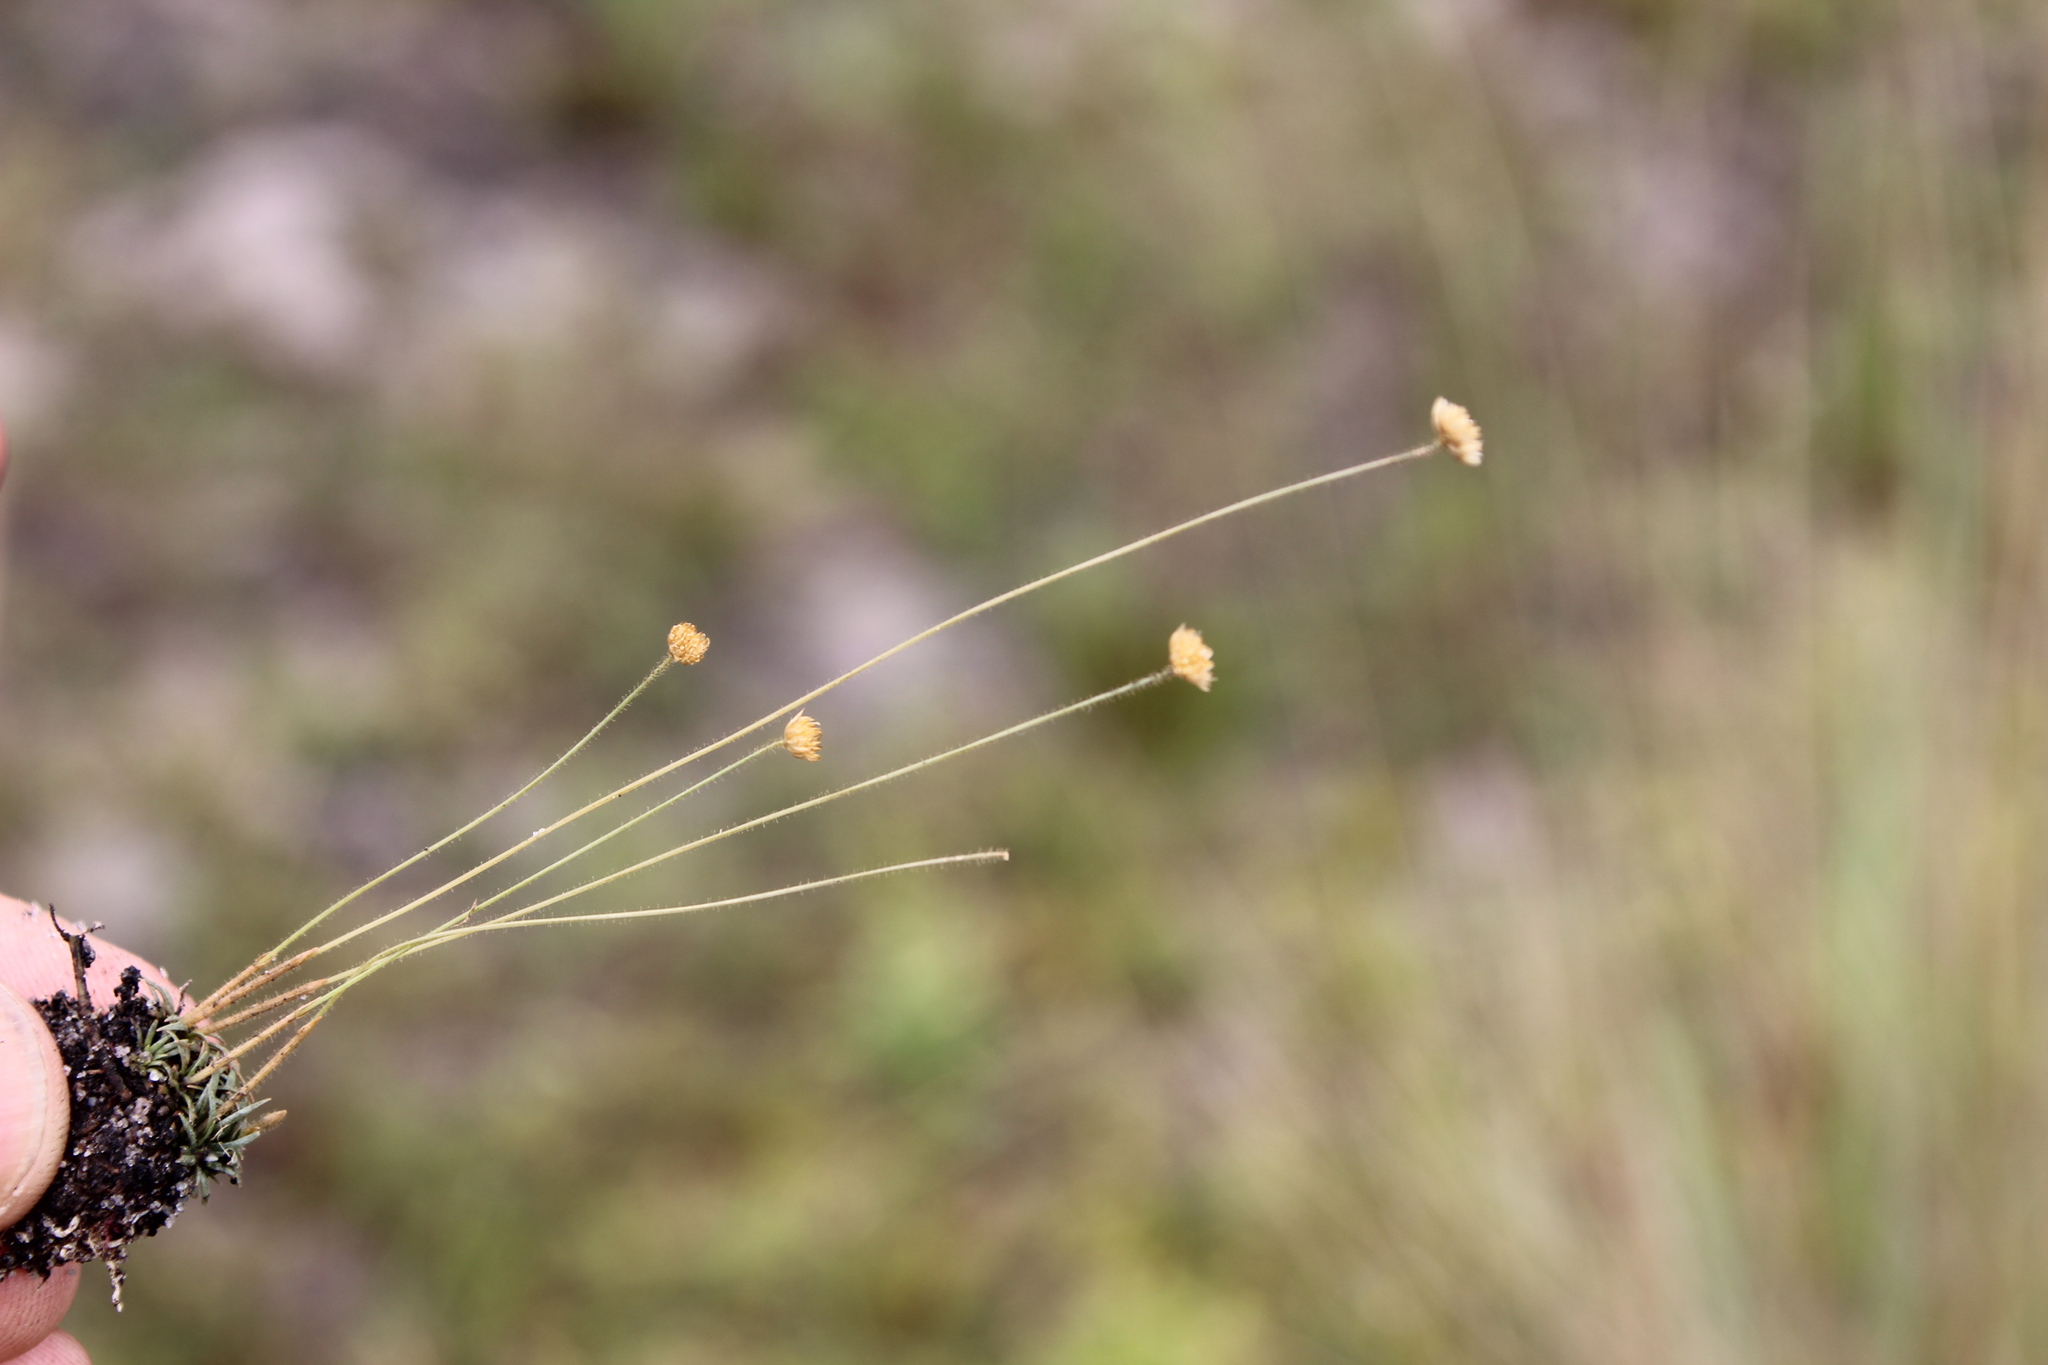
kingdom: Plantae
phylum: Tracheophyta
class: Liliopsida
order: Poales
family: Eriocaulaceae
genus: Syngonanthus
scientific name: Syngonanthus wahlbergii
